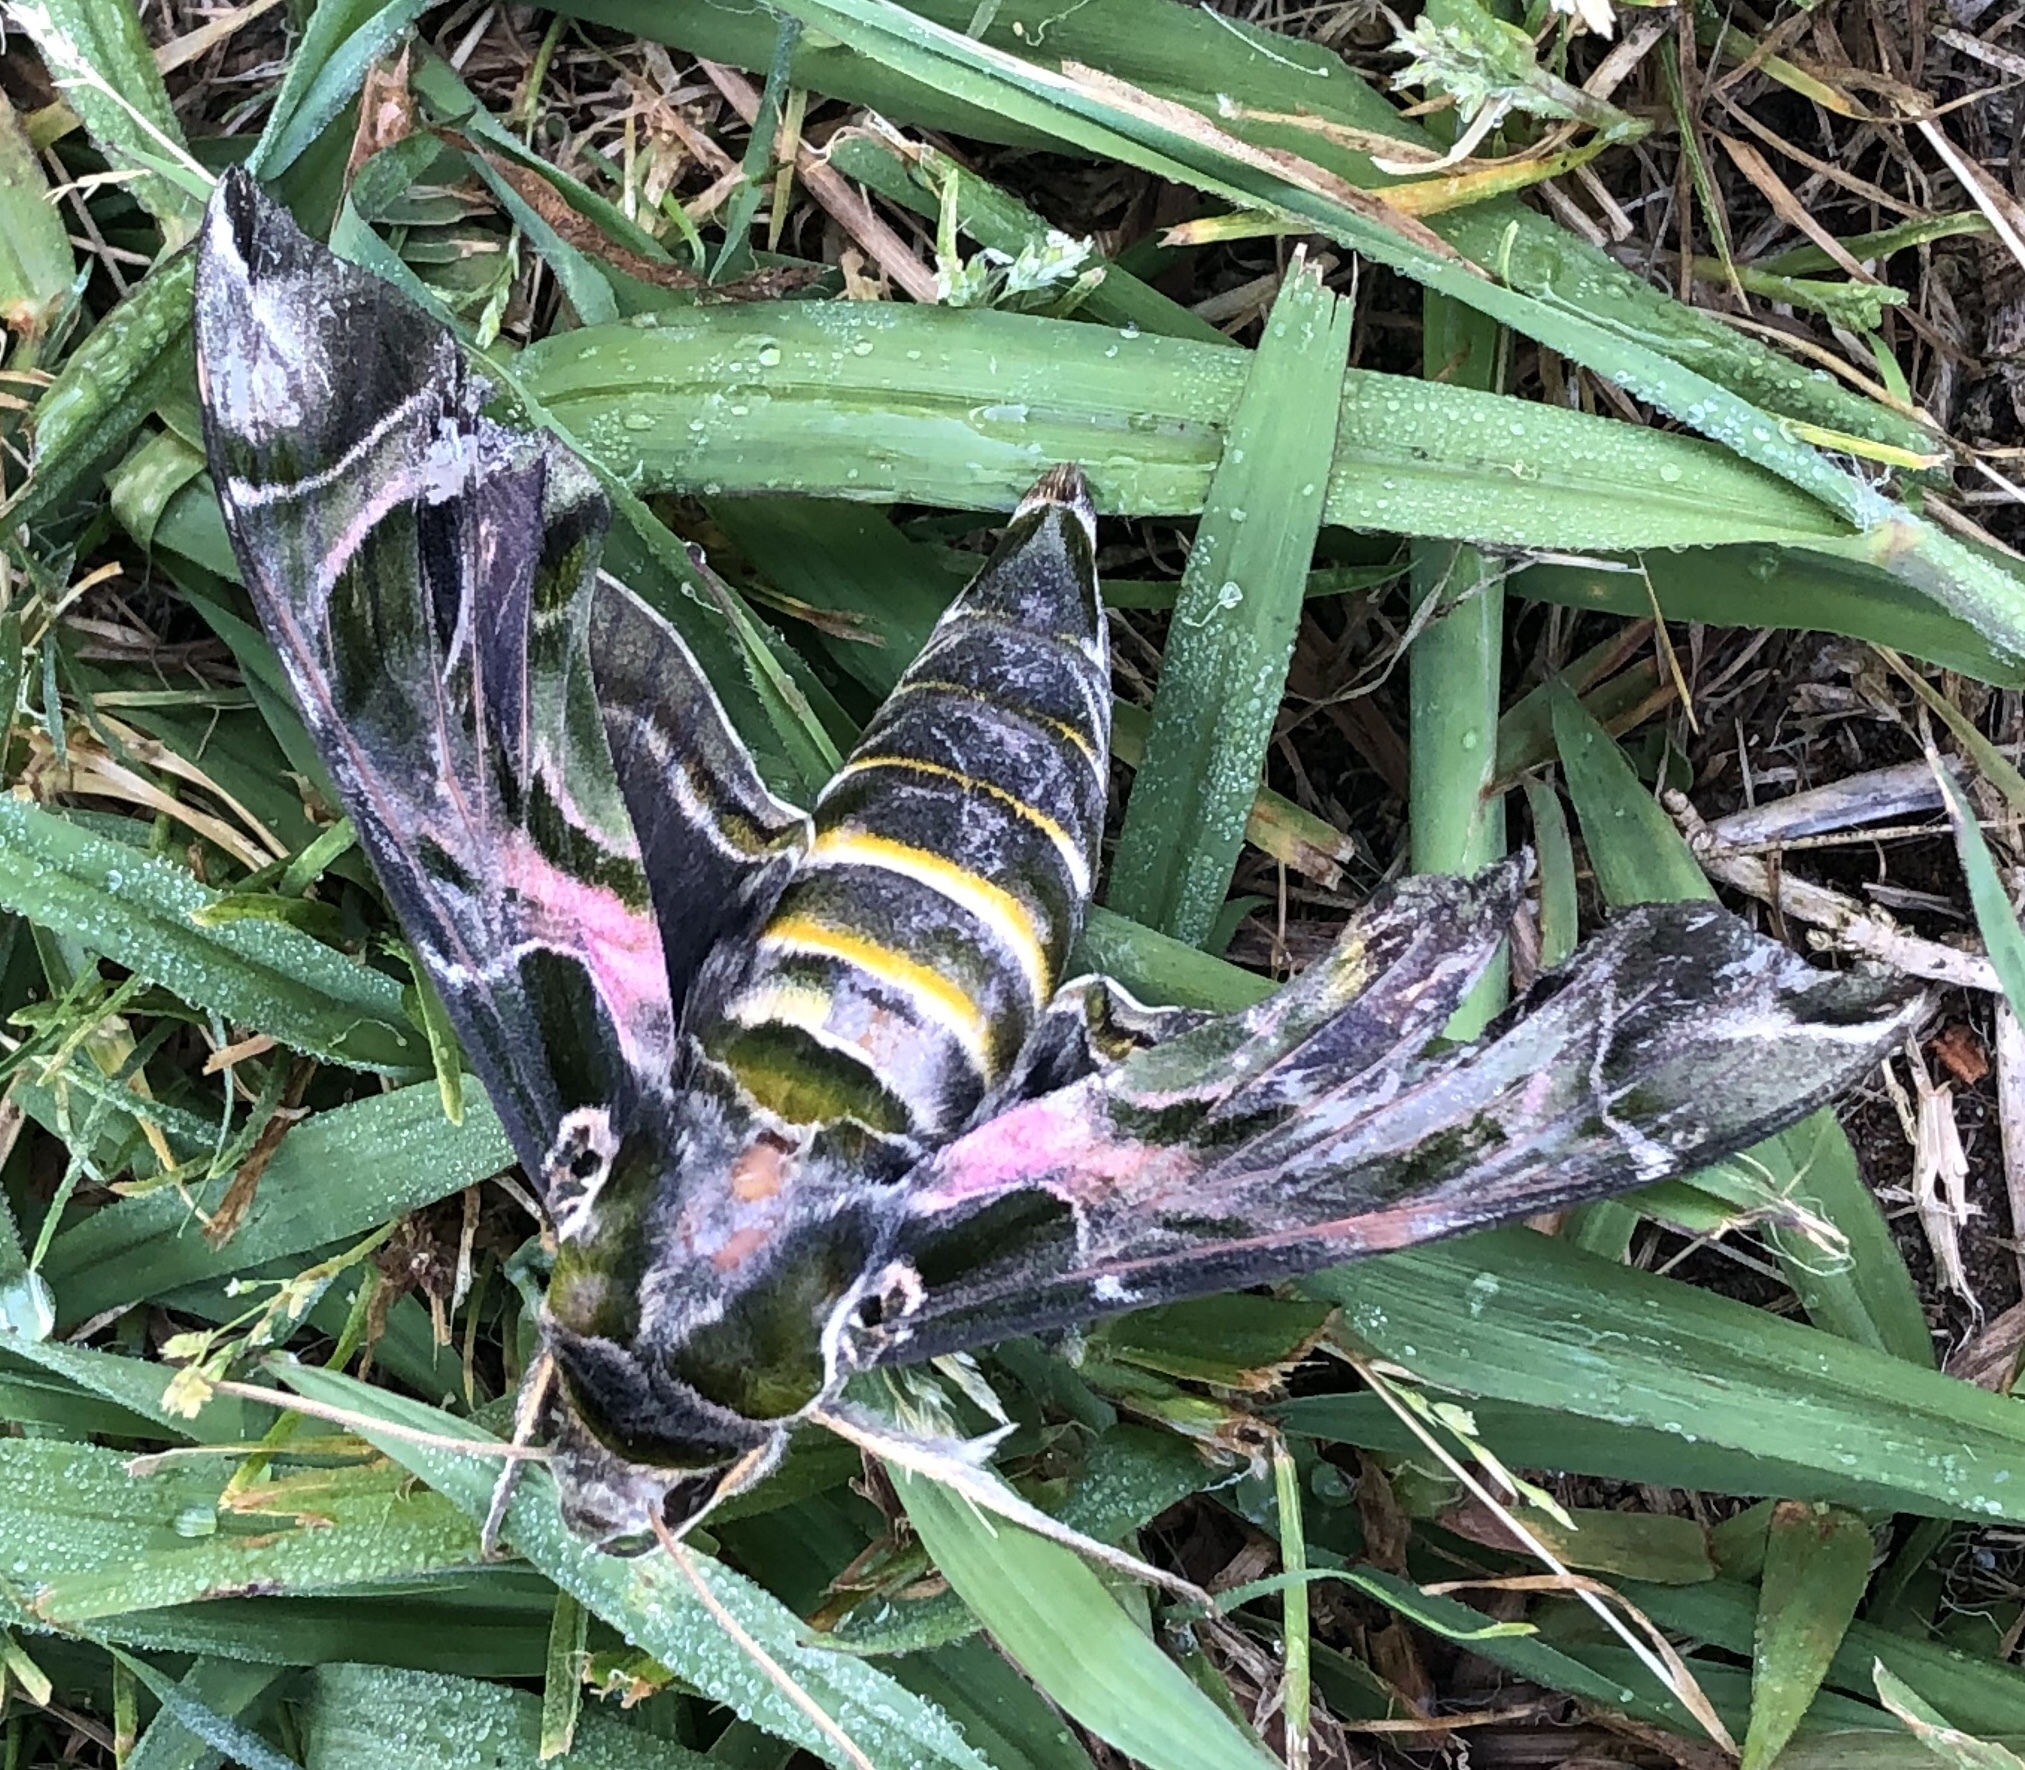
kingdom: Animalia
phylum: Arthropoda
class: Insecta
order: Lepidoptera
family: Sphingidae
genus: Daphnis
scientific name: Daphnis nerii
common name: Oleander hawk-moth
